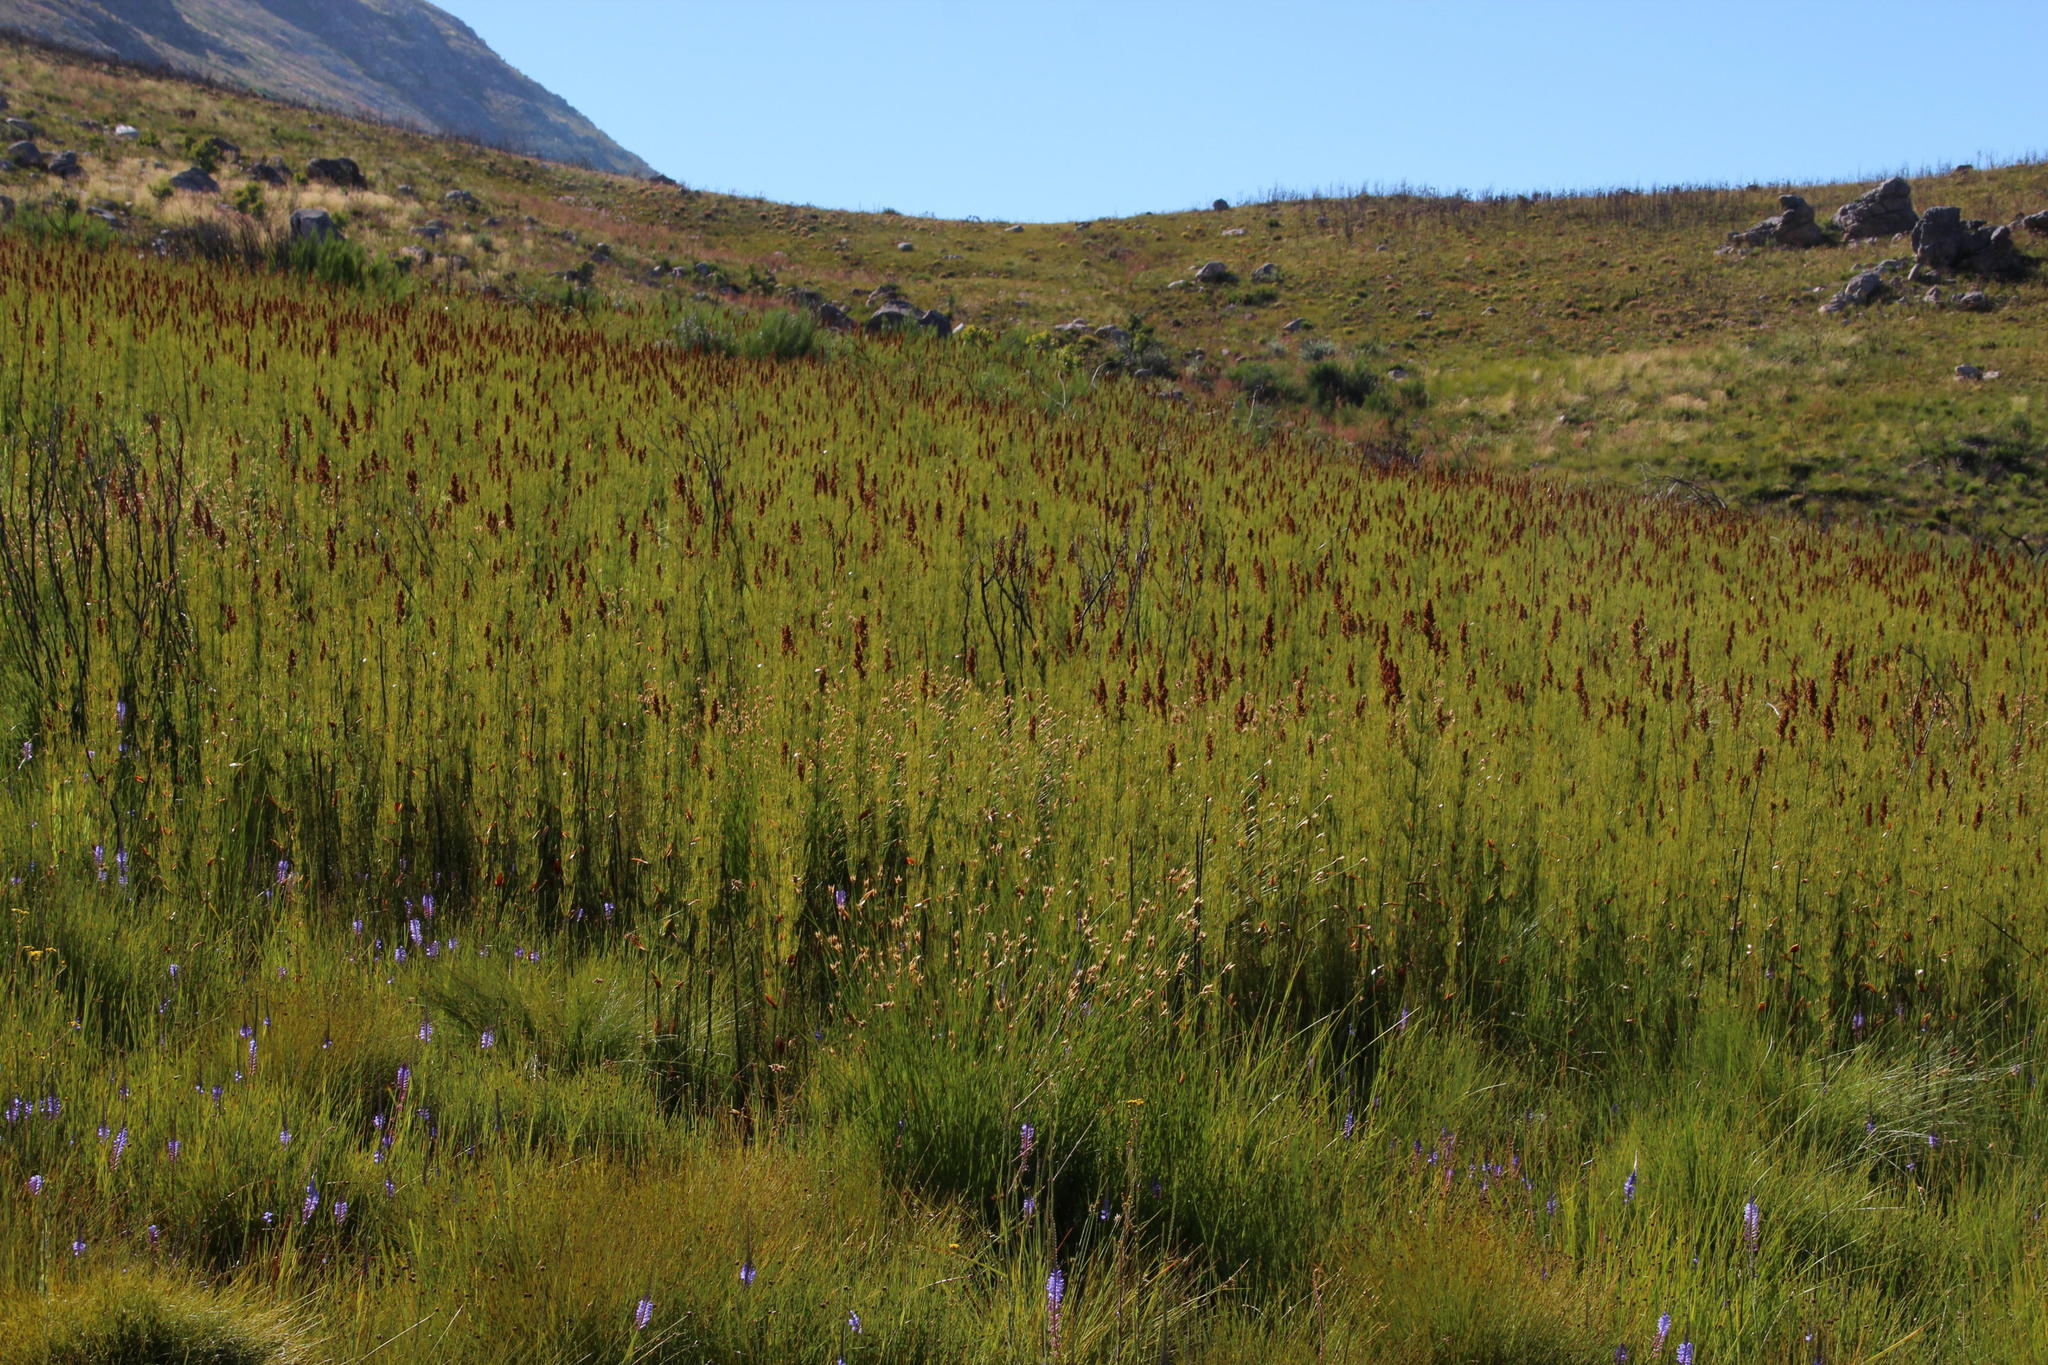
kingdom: Plantae
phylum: Tracheophyta
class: Liliopsida
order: Poales
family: Restionaceae
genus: Elegia
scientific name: Elegia capensis
